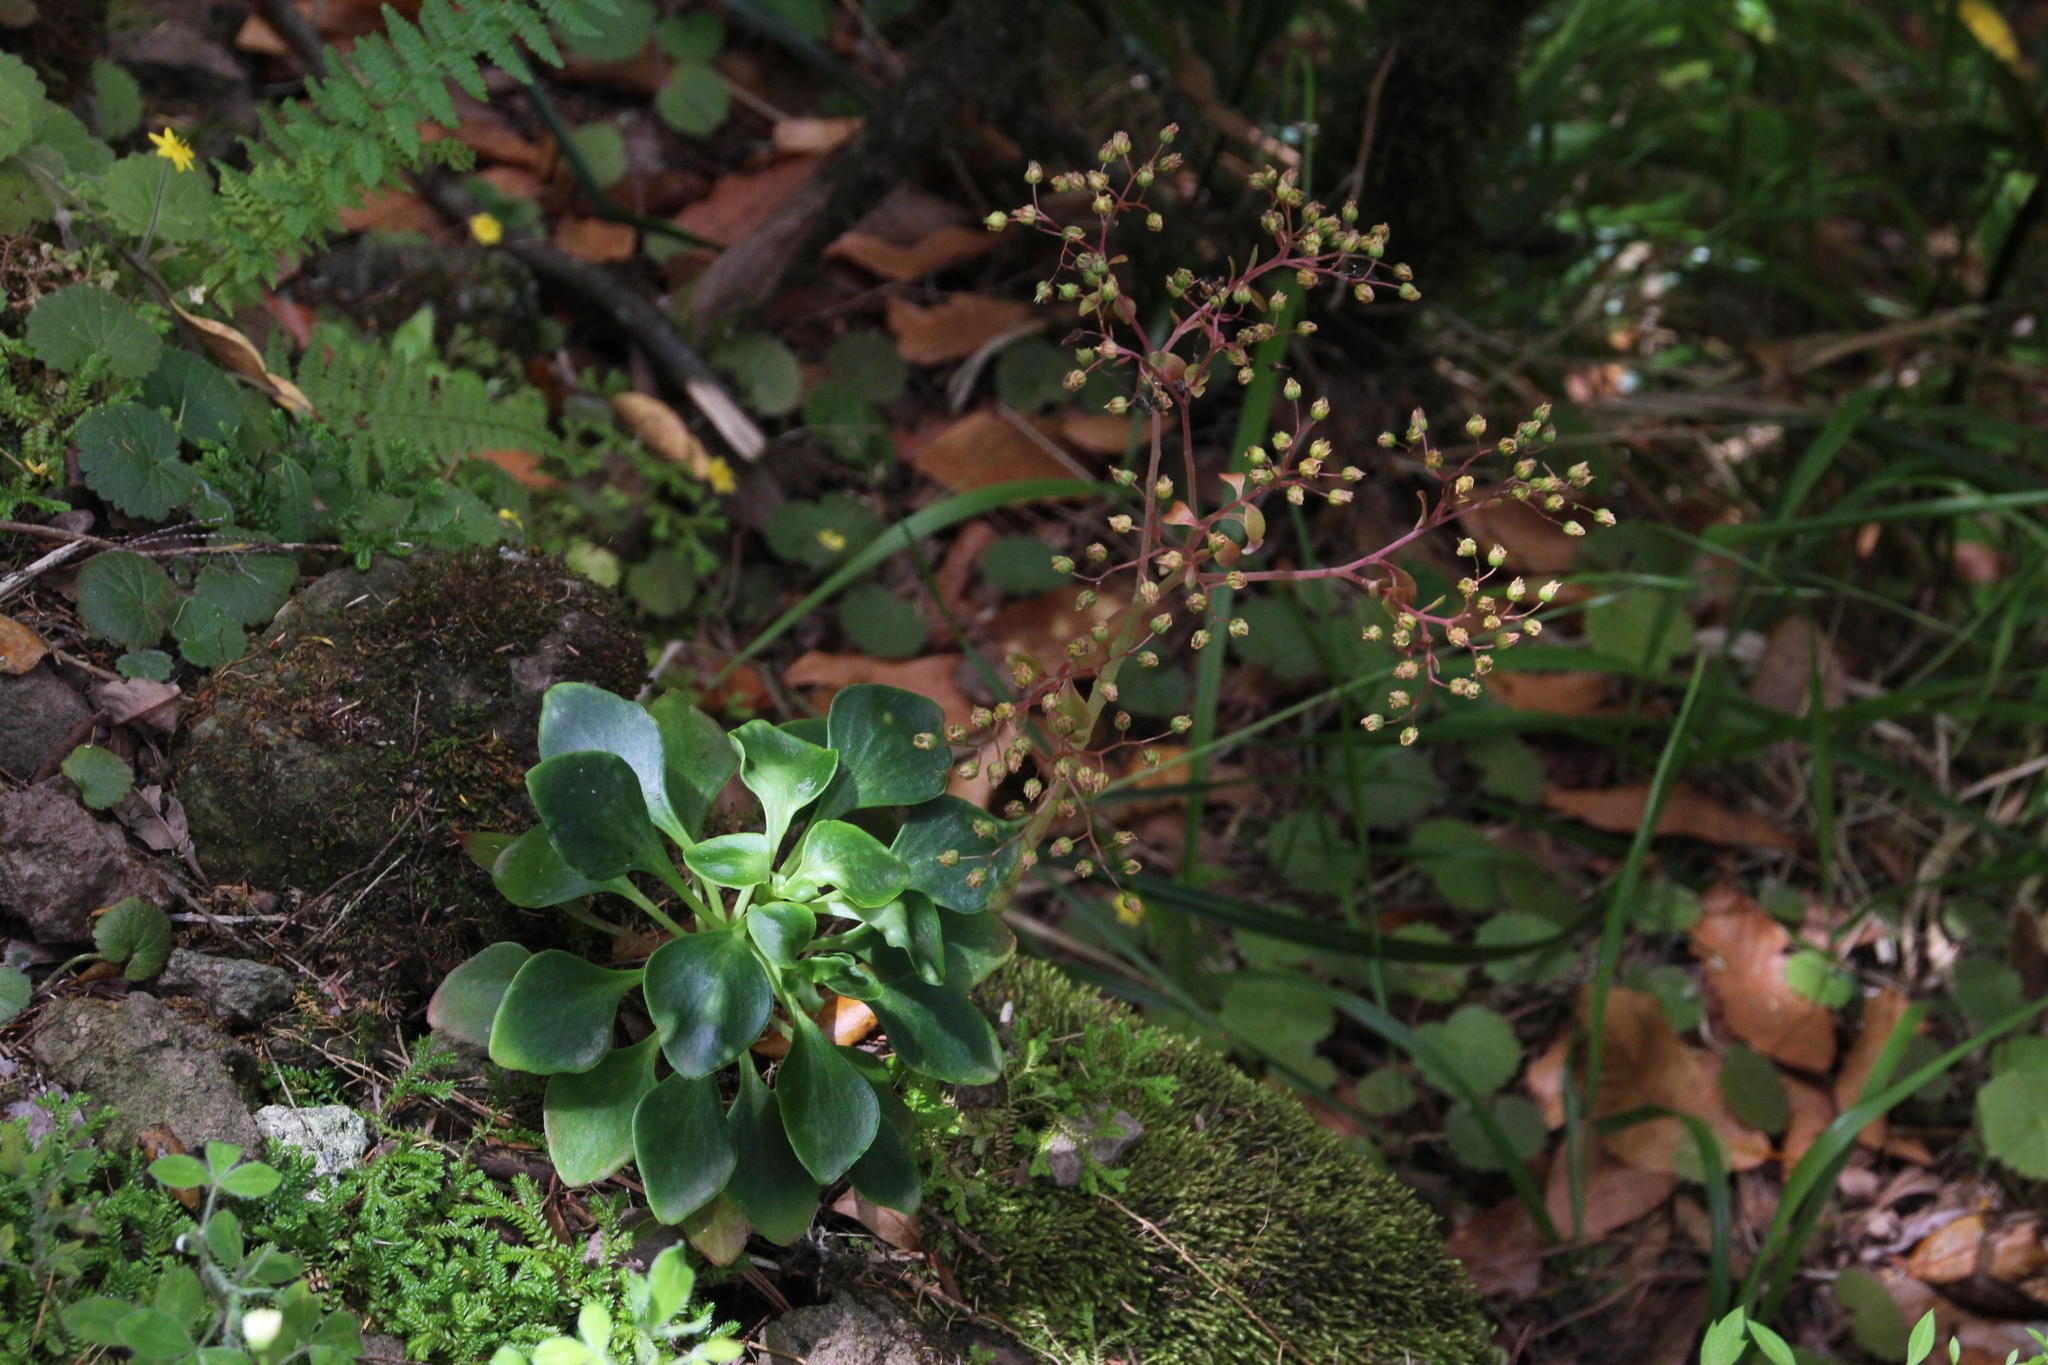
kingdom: Plantae
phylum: Tracheophyta
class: Magnoliopsida
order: Saxifragales
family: Crassulaceae
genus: Aichryson
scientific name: Aichryson divaricatum
